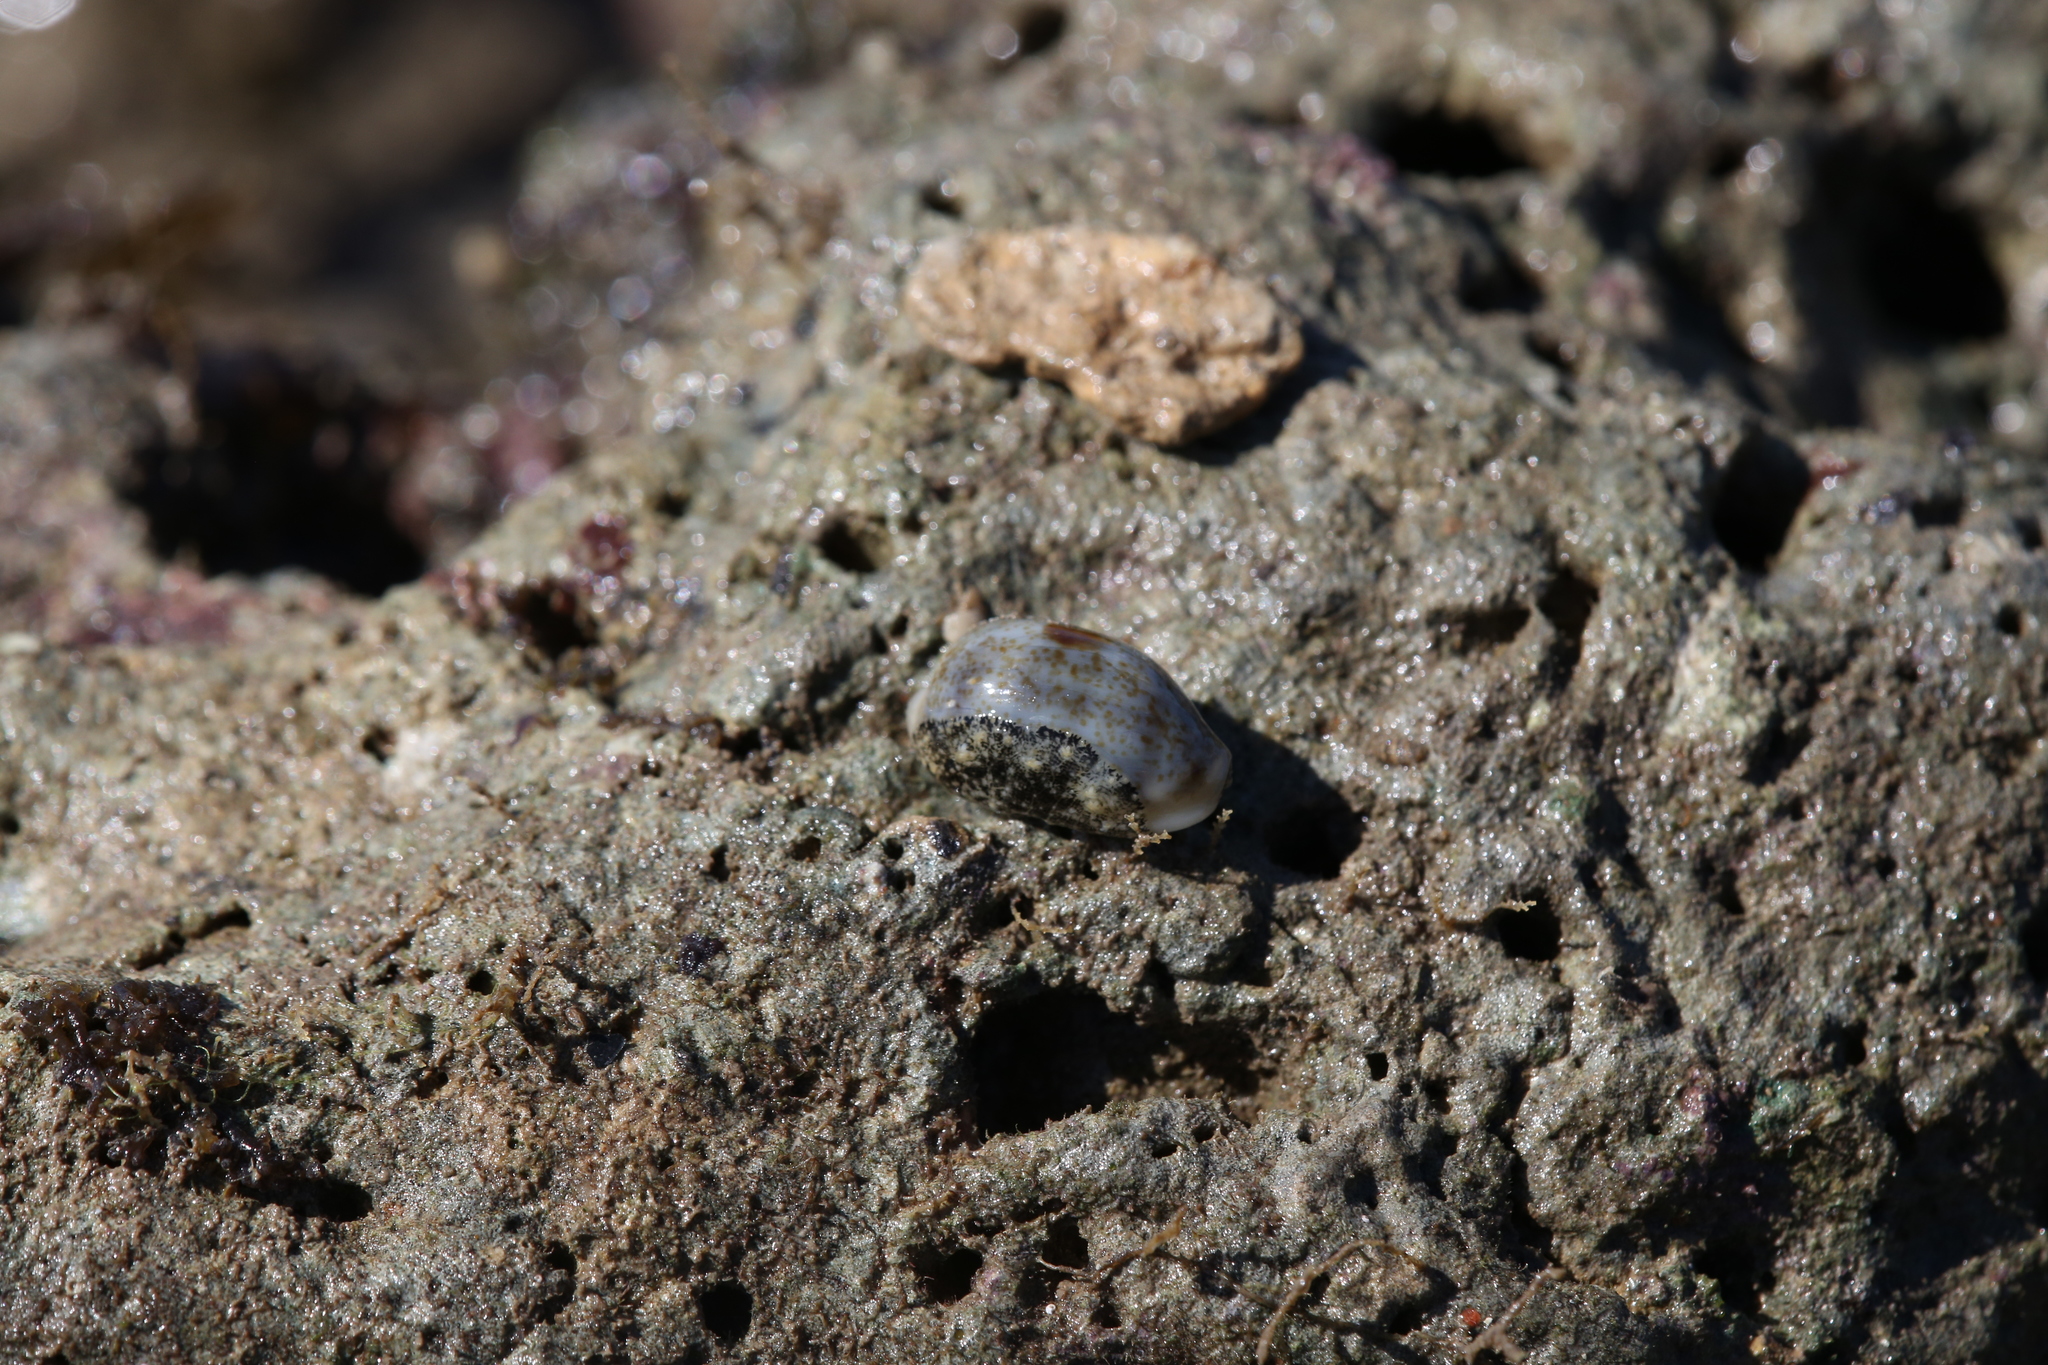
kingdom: Animalia
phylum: Mollusca
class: Gastropoda
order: Littorinimorpha
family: Cypraeidae
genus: Erronea
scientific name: Erronea errones
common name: Mistaken cowrie
